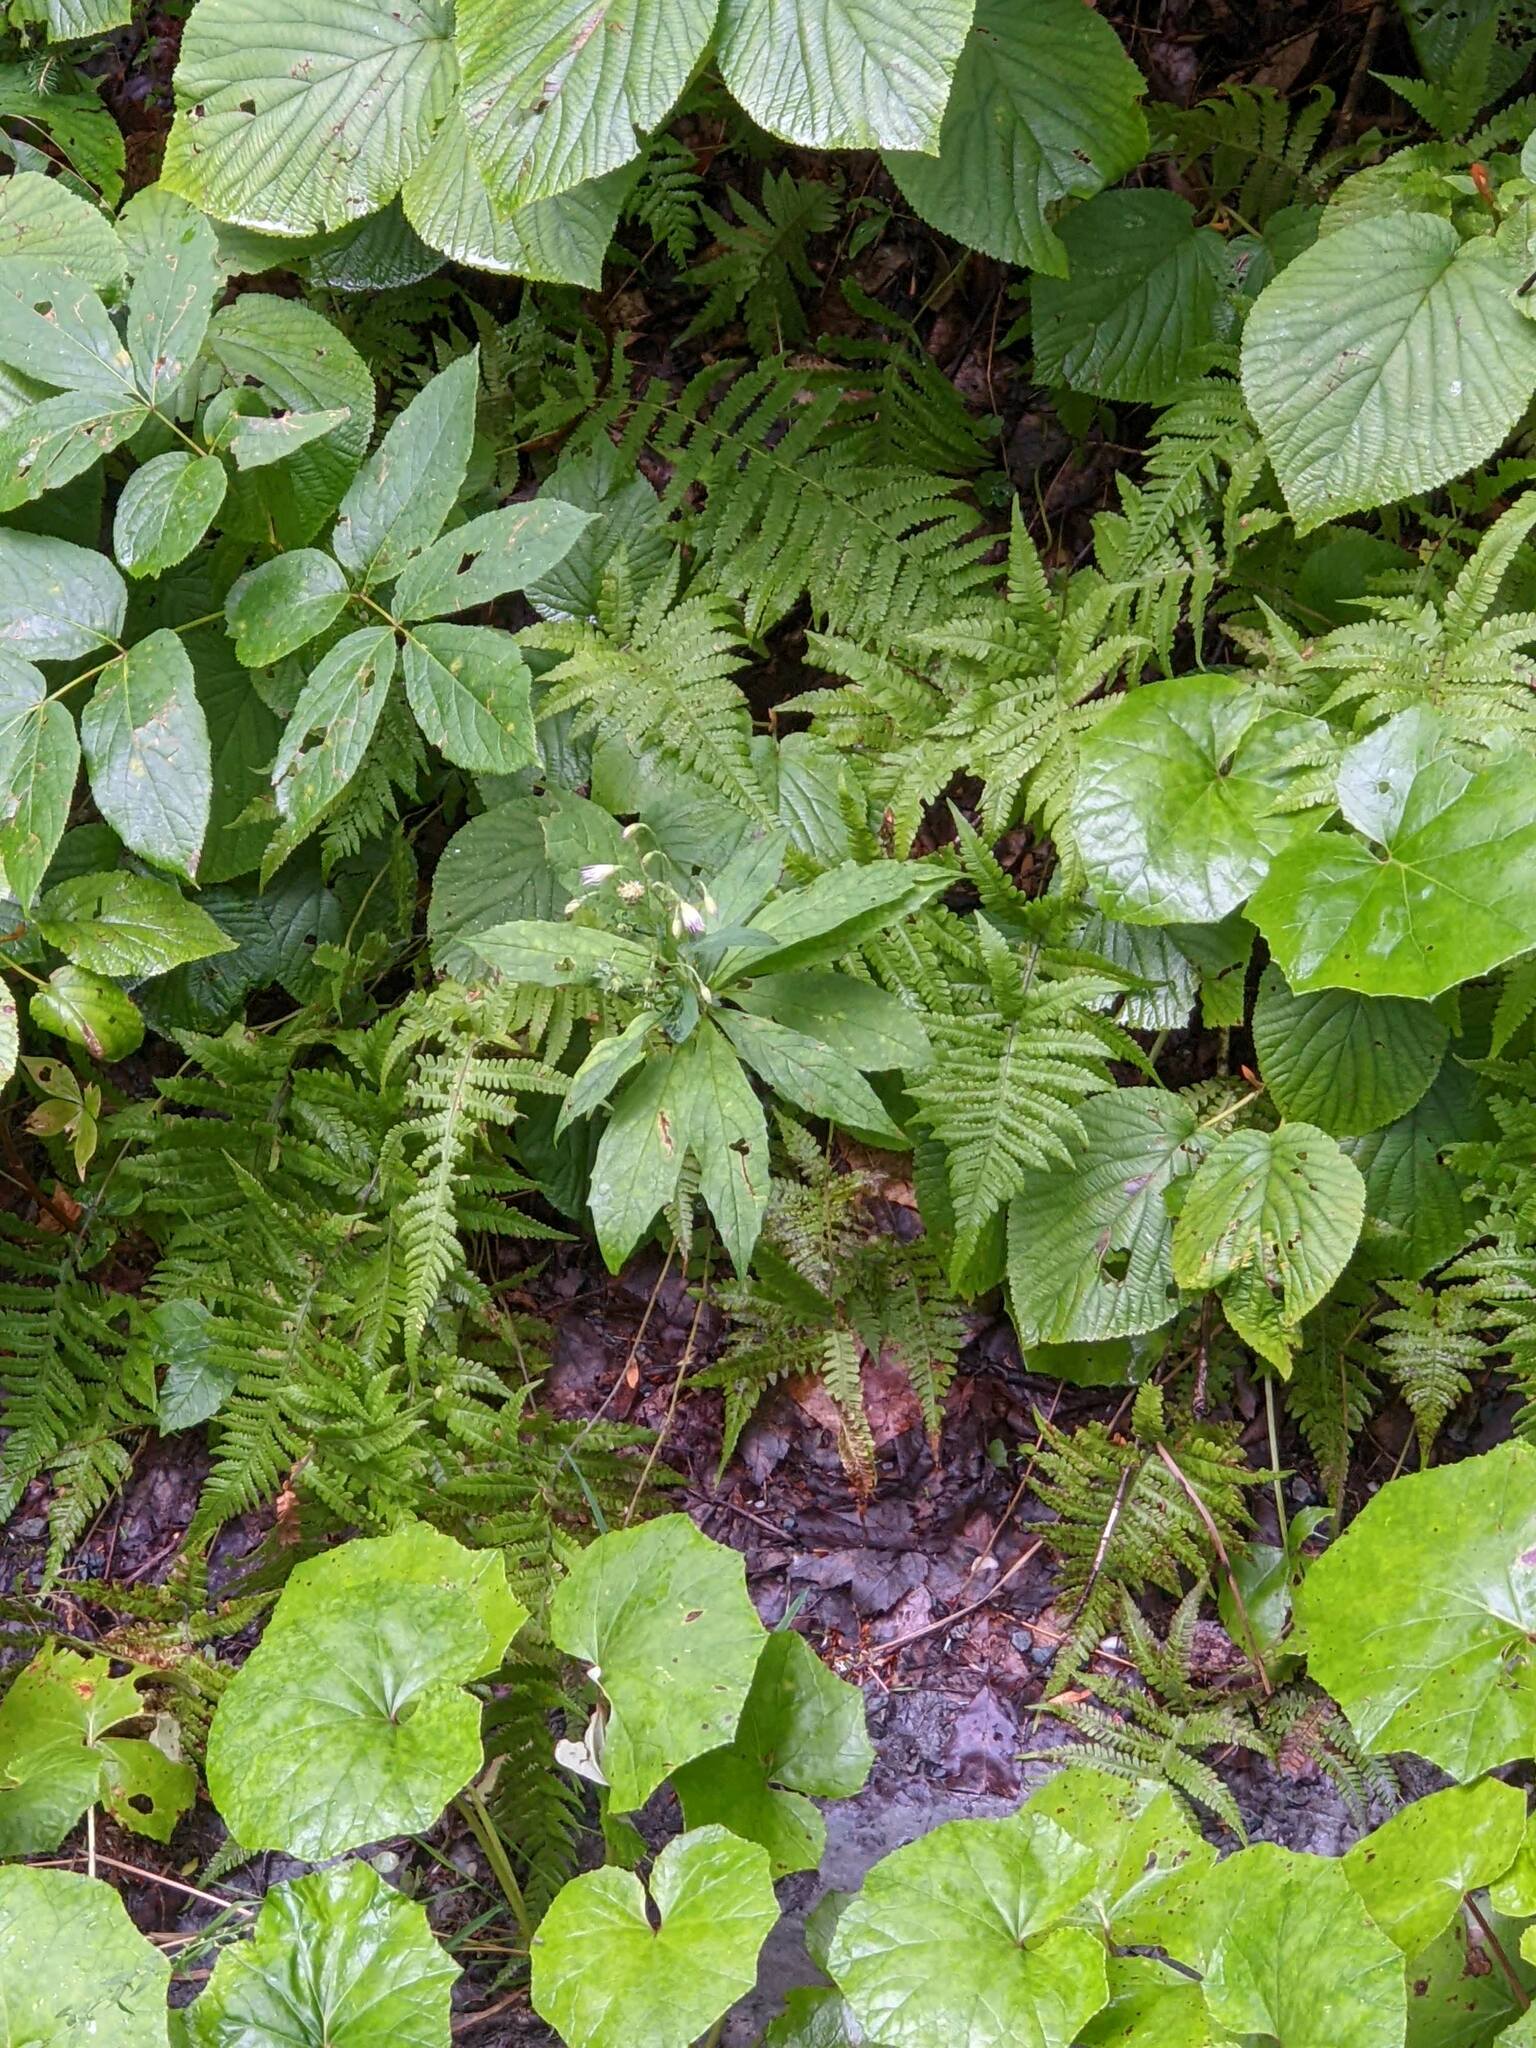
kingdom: Plantae
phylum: Tracheophyta
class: Magnoliopsida
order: Asterales
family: Asteraceae
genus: Oclemena
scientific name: Oclemena acuminata
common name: Mountain aster
